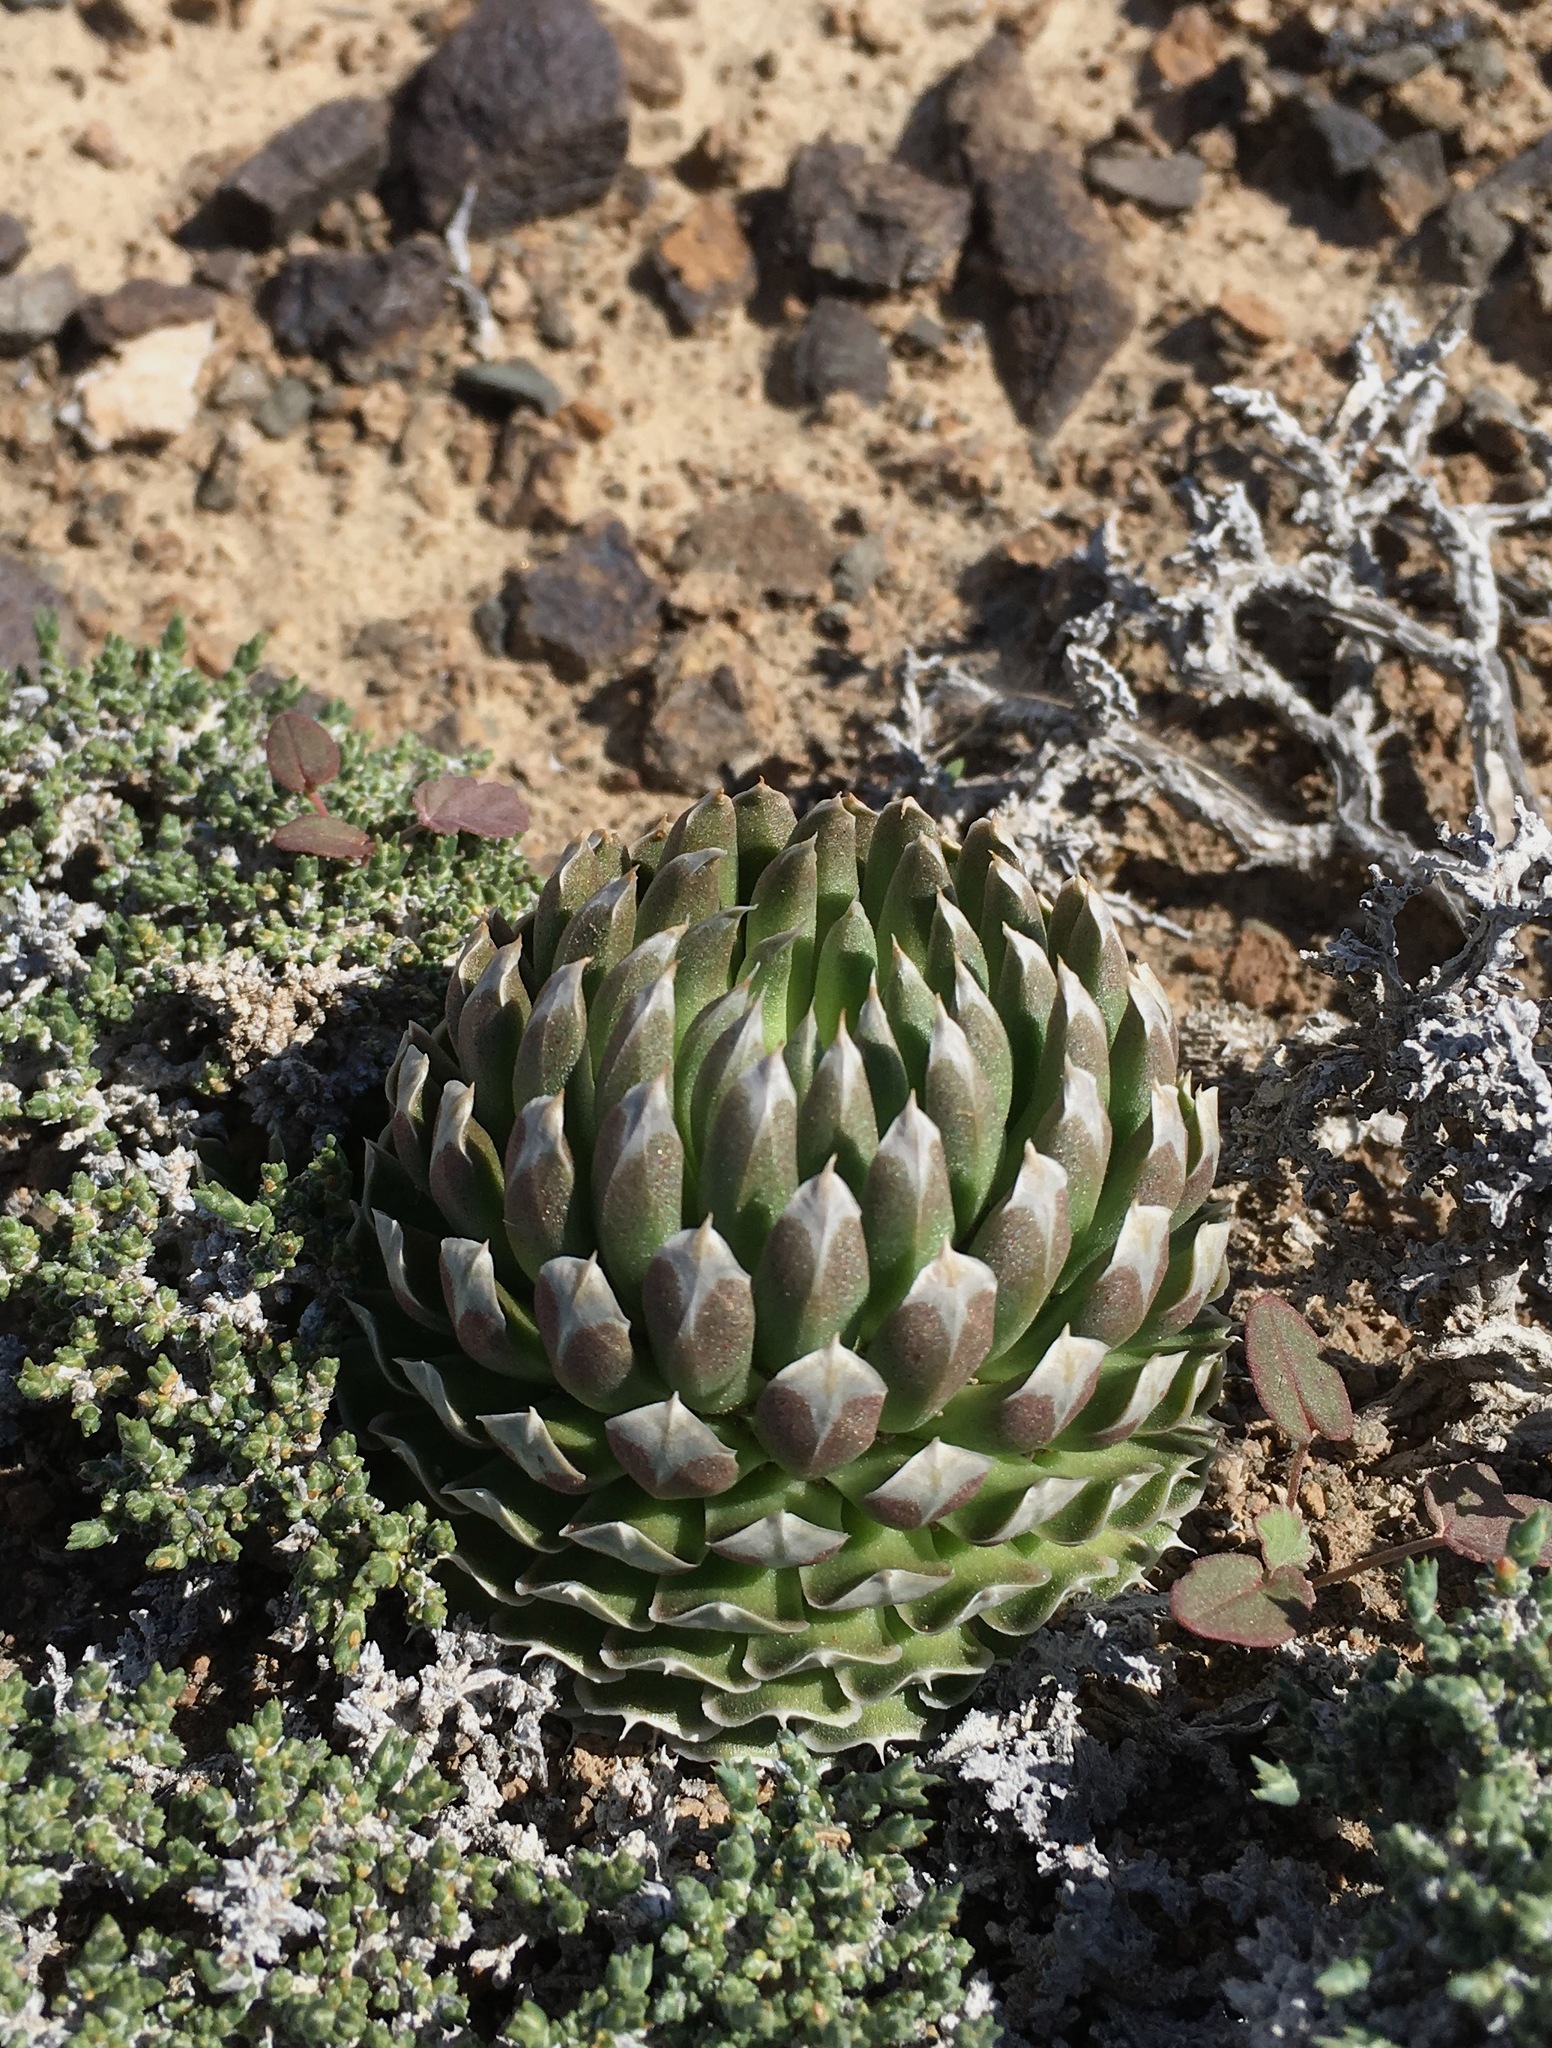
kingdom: Plantae
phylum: Tracheophyta
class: Magnoliopsida
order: Saxifragales
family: Crassulaceae
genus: Orostachys
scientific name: Orostachys thyrsiflora
